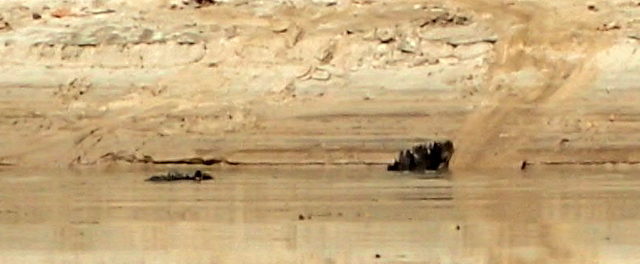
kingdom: Animalia
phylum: Chordata
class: Crocodylia
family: Alligatoridae
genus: Alligator
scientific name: Alligator mississippiensis
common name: American alligator
